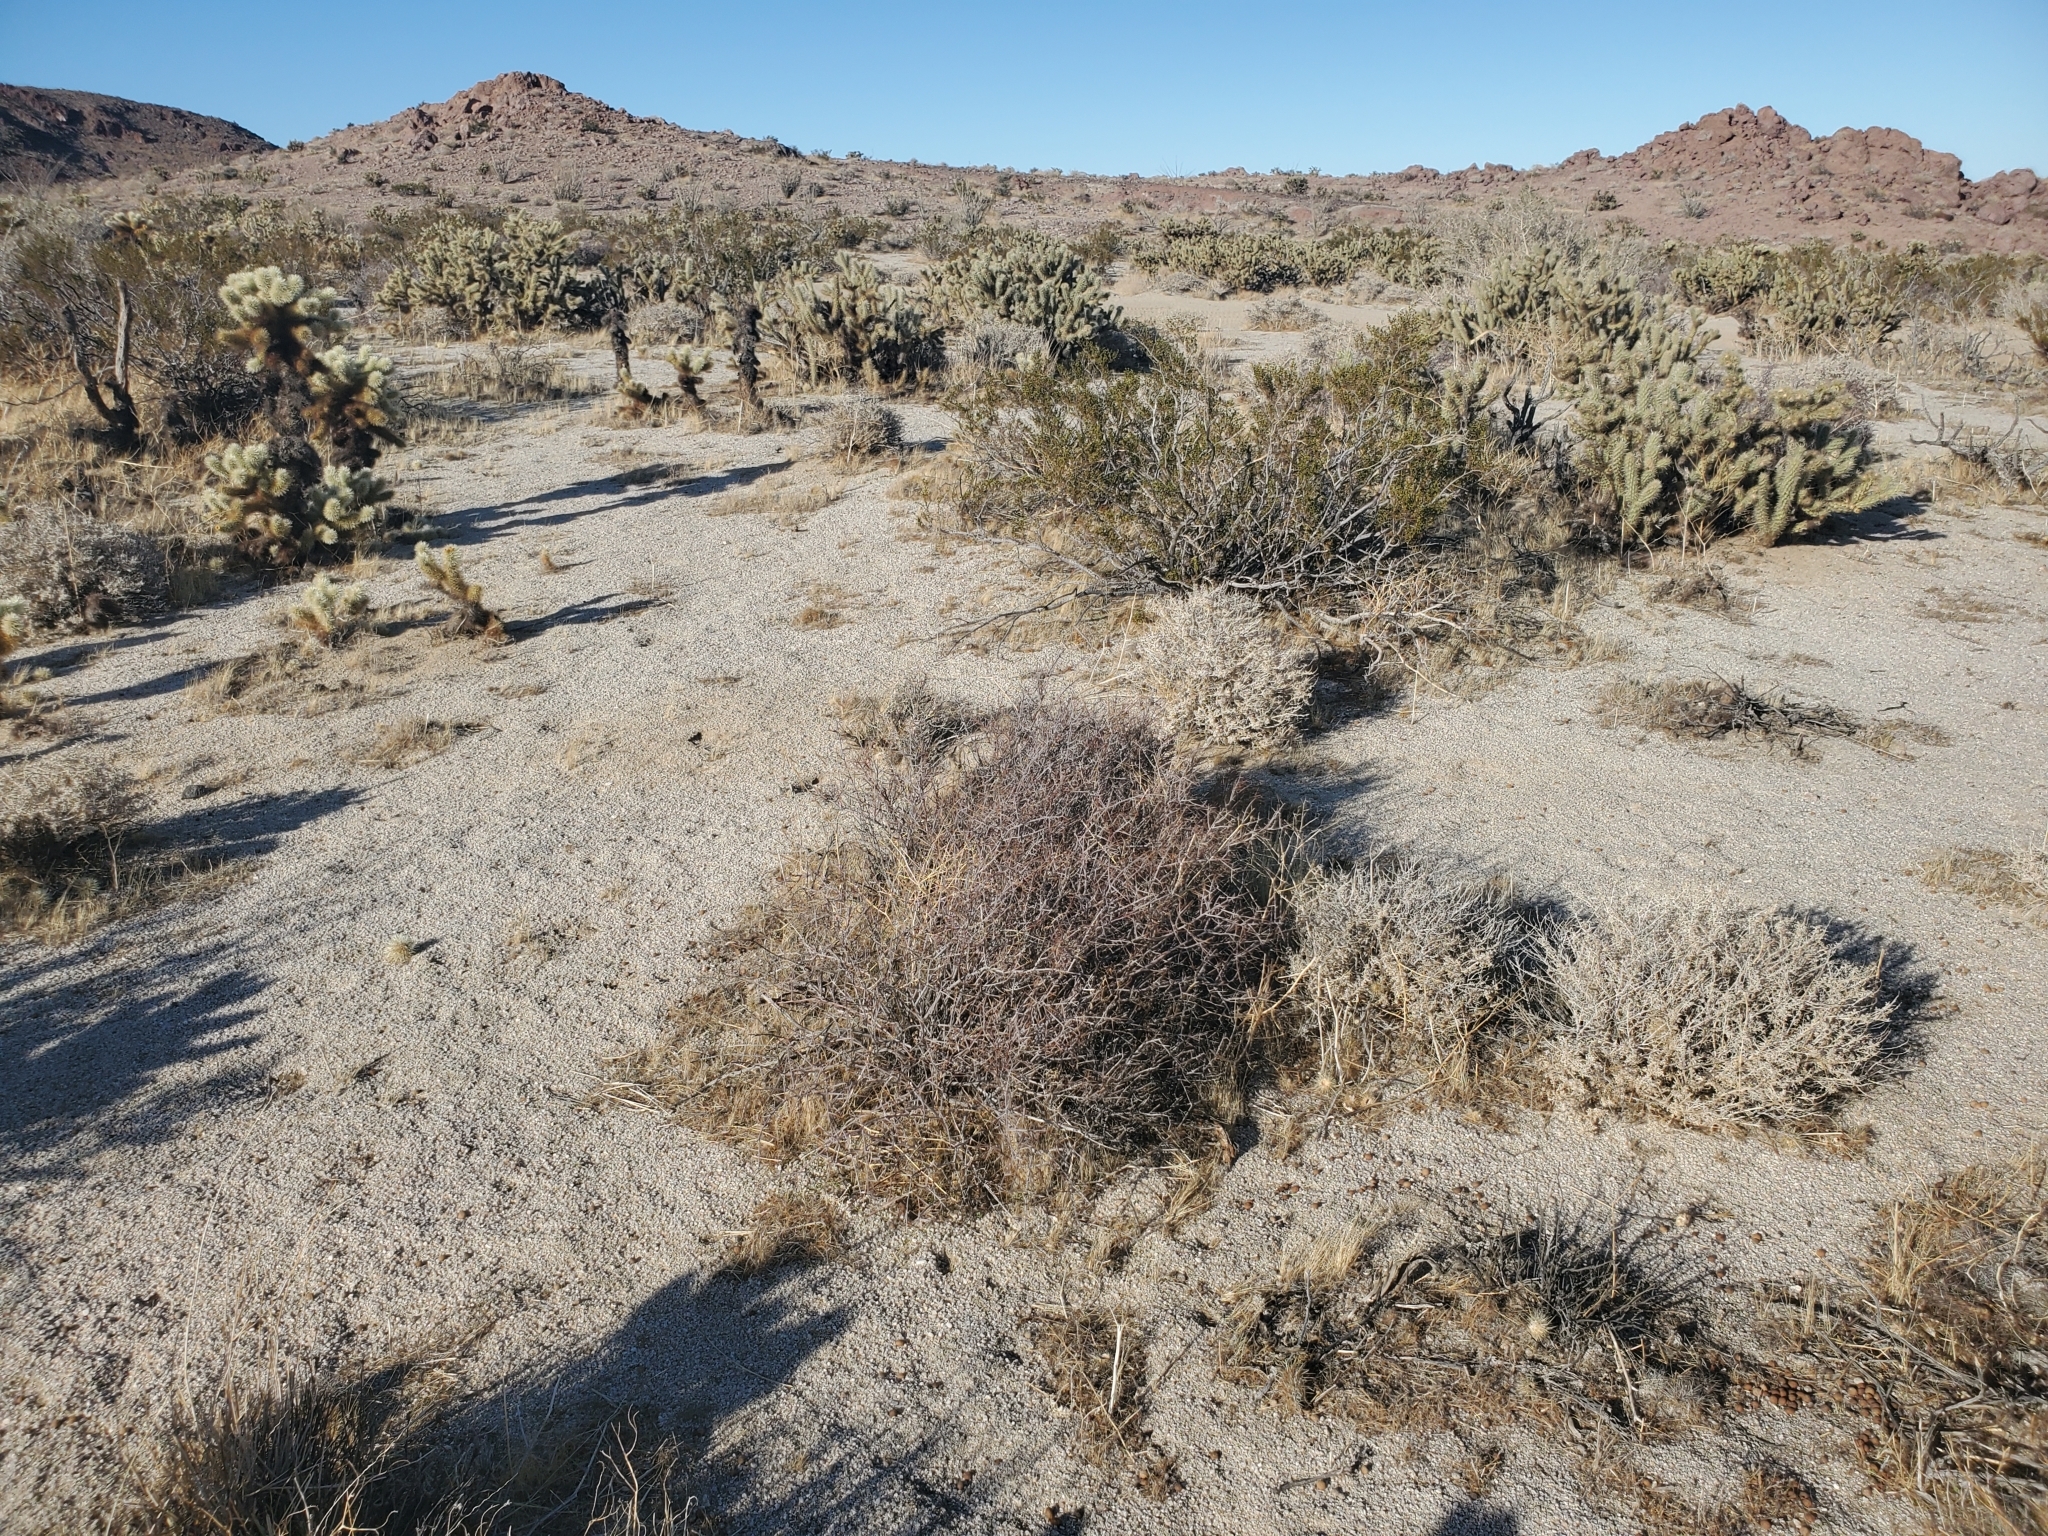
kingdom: Plantae
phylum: Tracheophyta
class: Magnoliopsida
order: Zygophyllales
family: Krameriaceae
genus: Krameria
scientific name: Krameria bicolor
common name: White ratany
